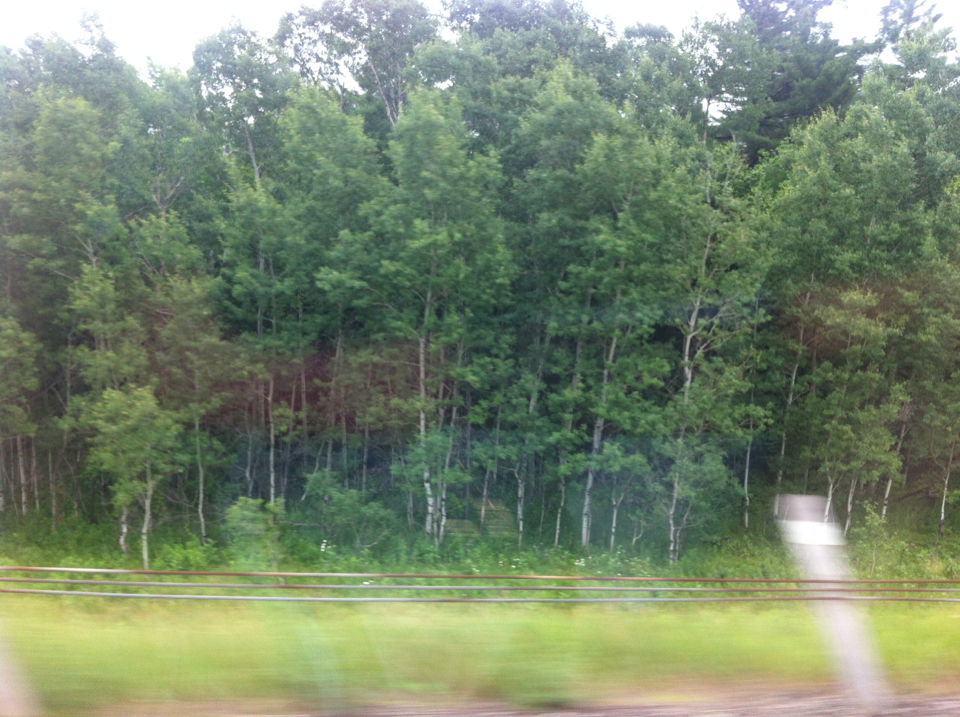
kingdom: Plantae
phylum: Tracheophyta
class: Magnoliopsida
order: Malpighiales
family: Salicaceae
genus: Populus
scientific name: Populus tremuloides
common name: Quaking aspen
